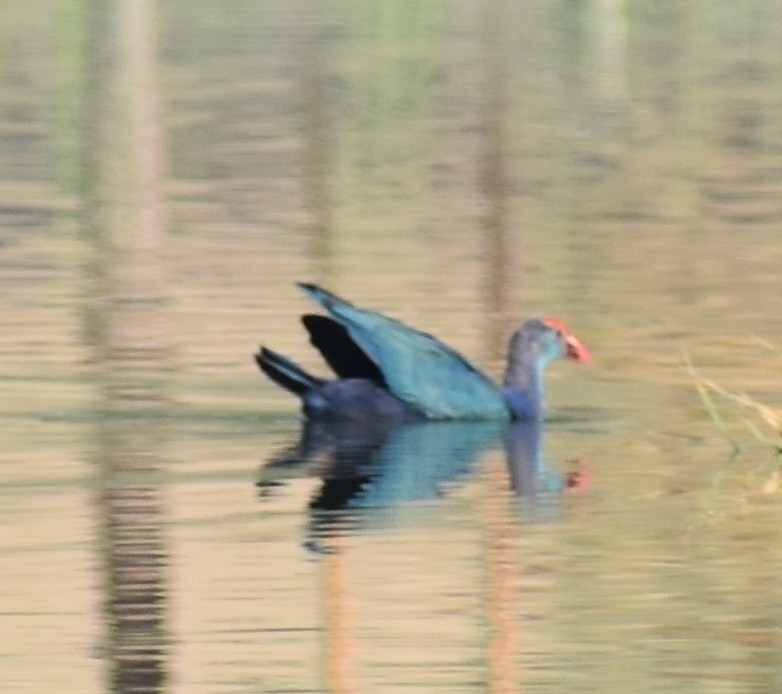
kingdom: Animalia
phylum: Chordata
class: Aves
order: Gruiformes
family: Rallidae
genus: Porphyrio
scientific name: Porphyrio porphyrio
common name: Purple swamphen
